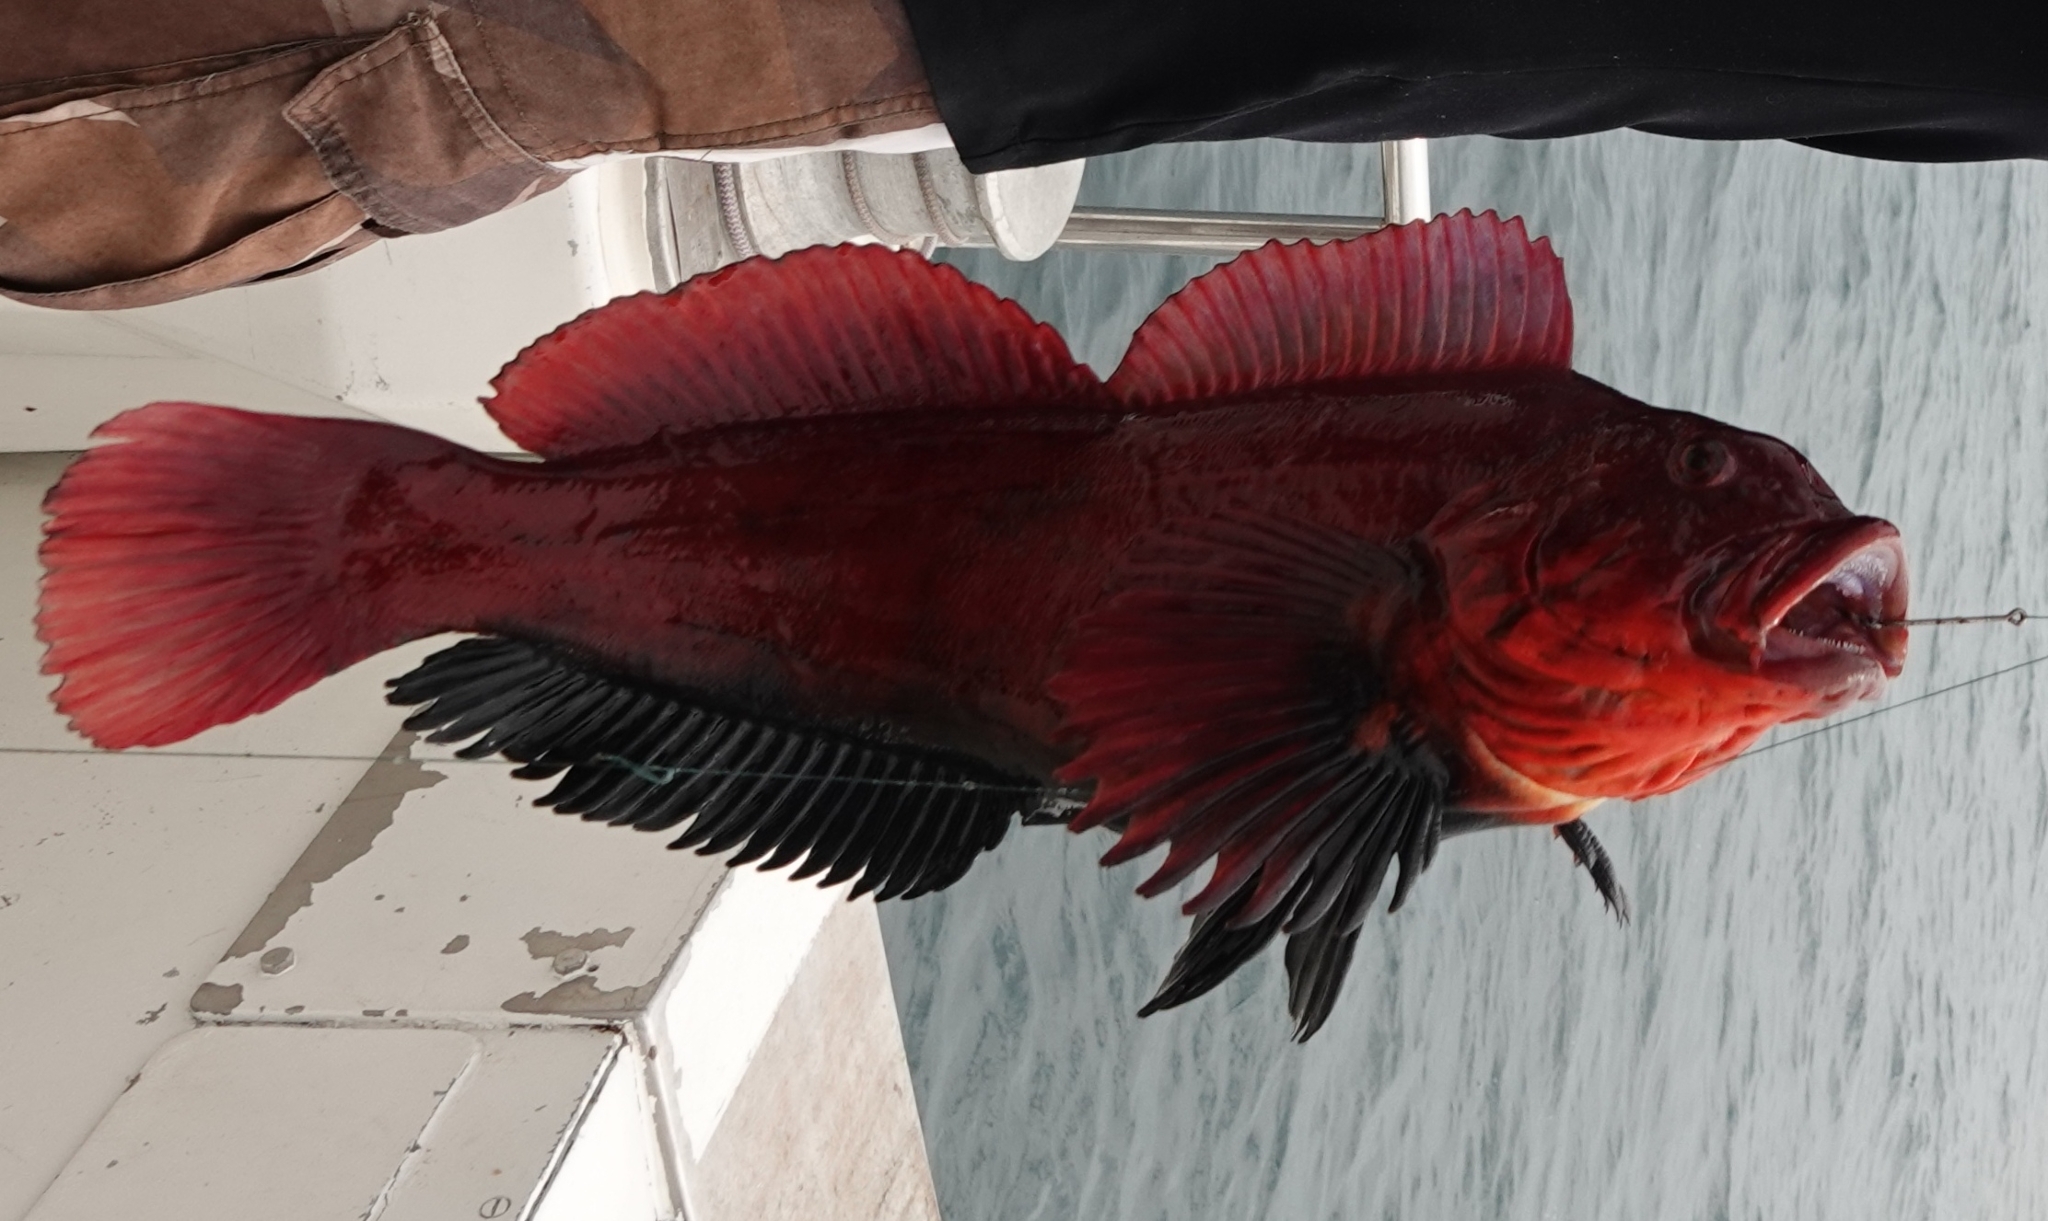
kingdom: Animalia
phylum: Chordata
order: Scorpaeniformes
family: Hexagrammidae
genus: Hexagrammos
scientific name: Hexagrammos lagocephalus
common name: Rock greenling
